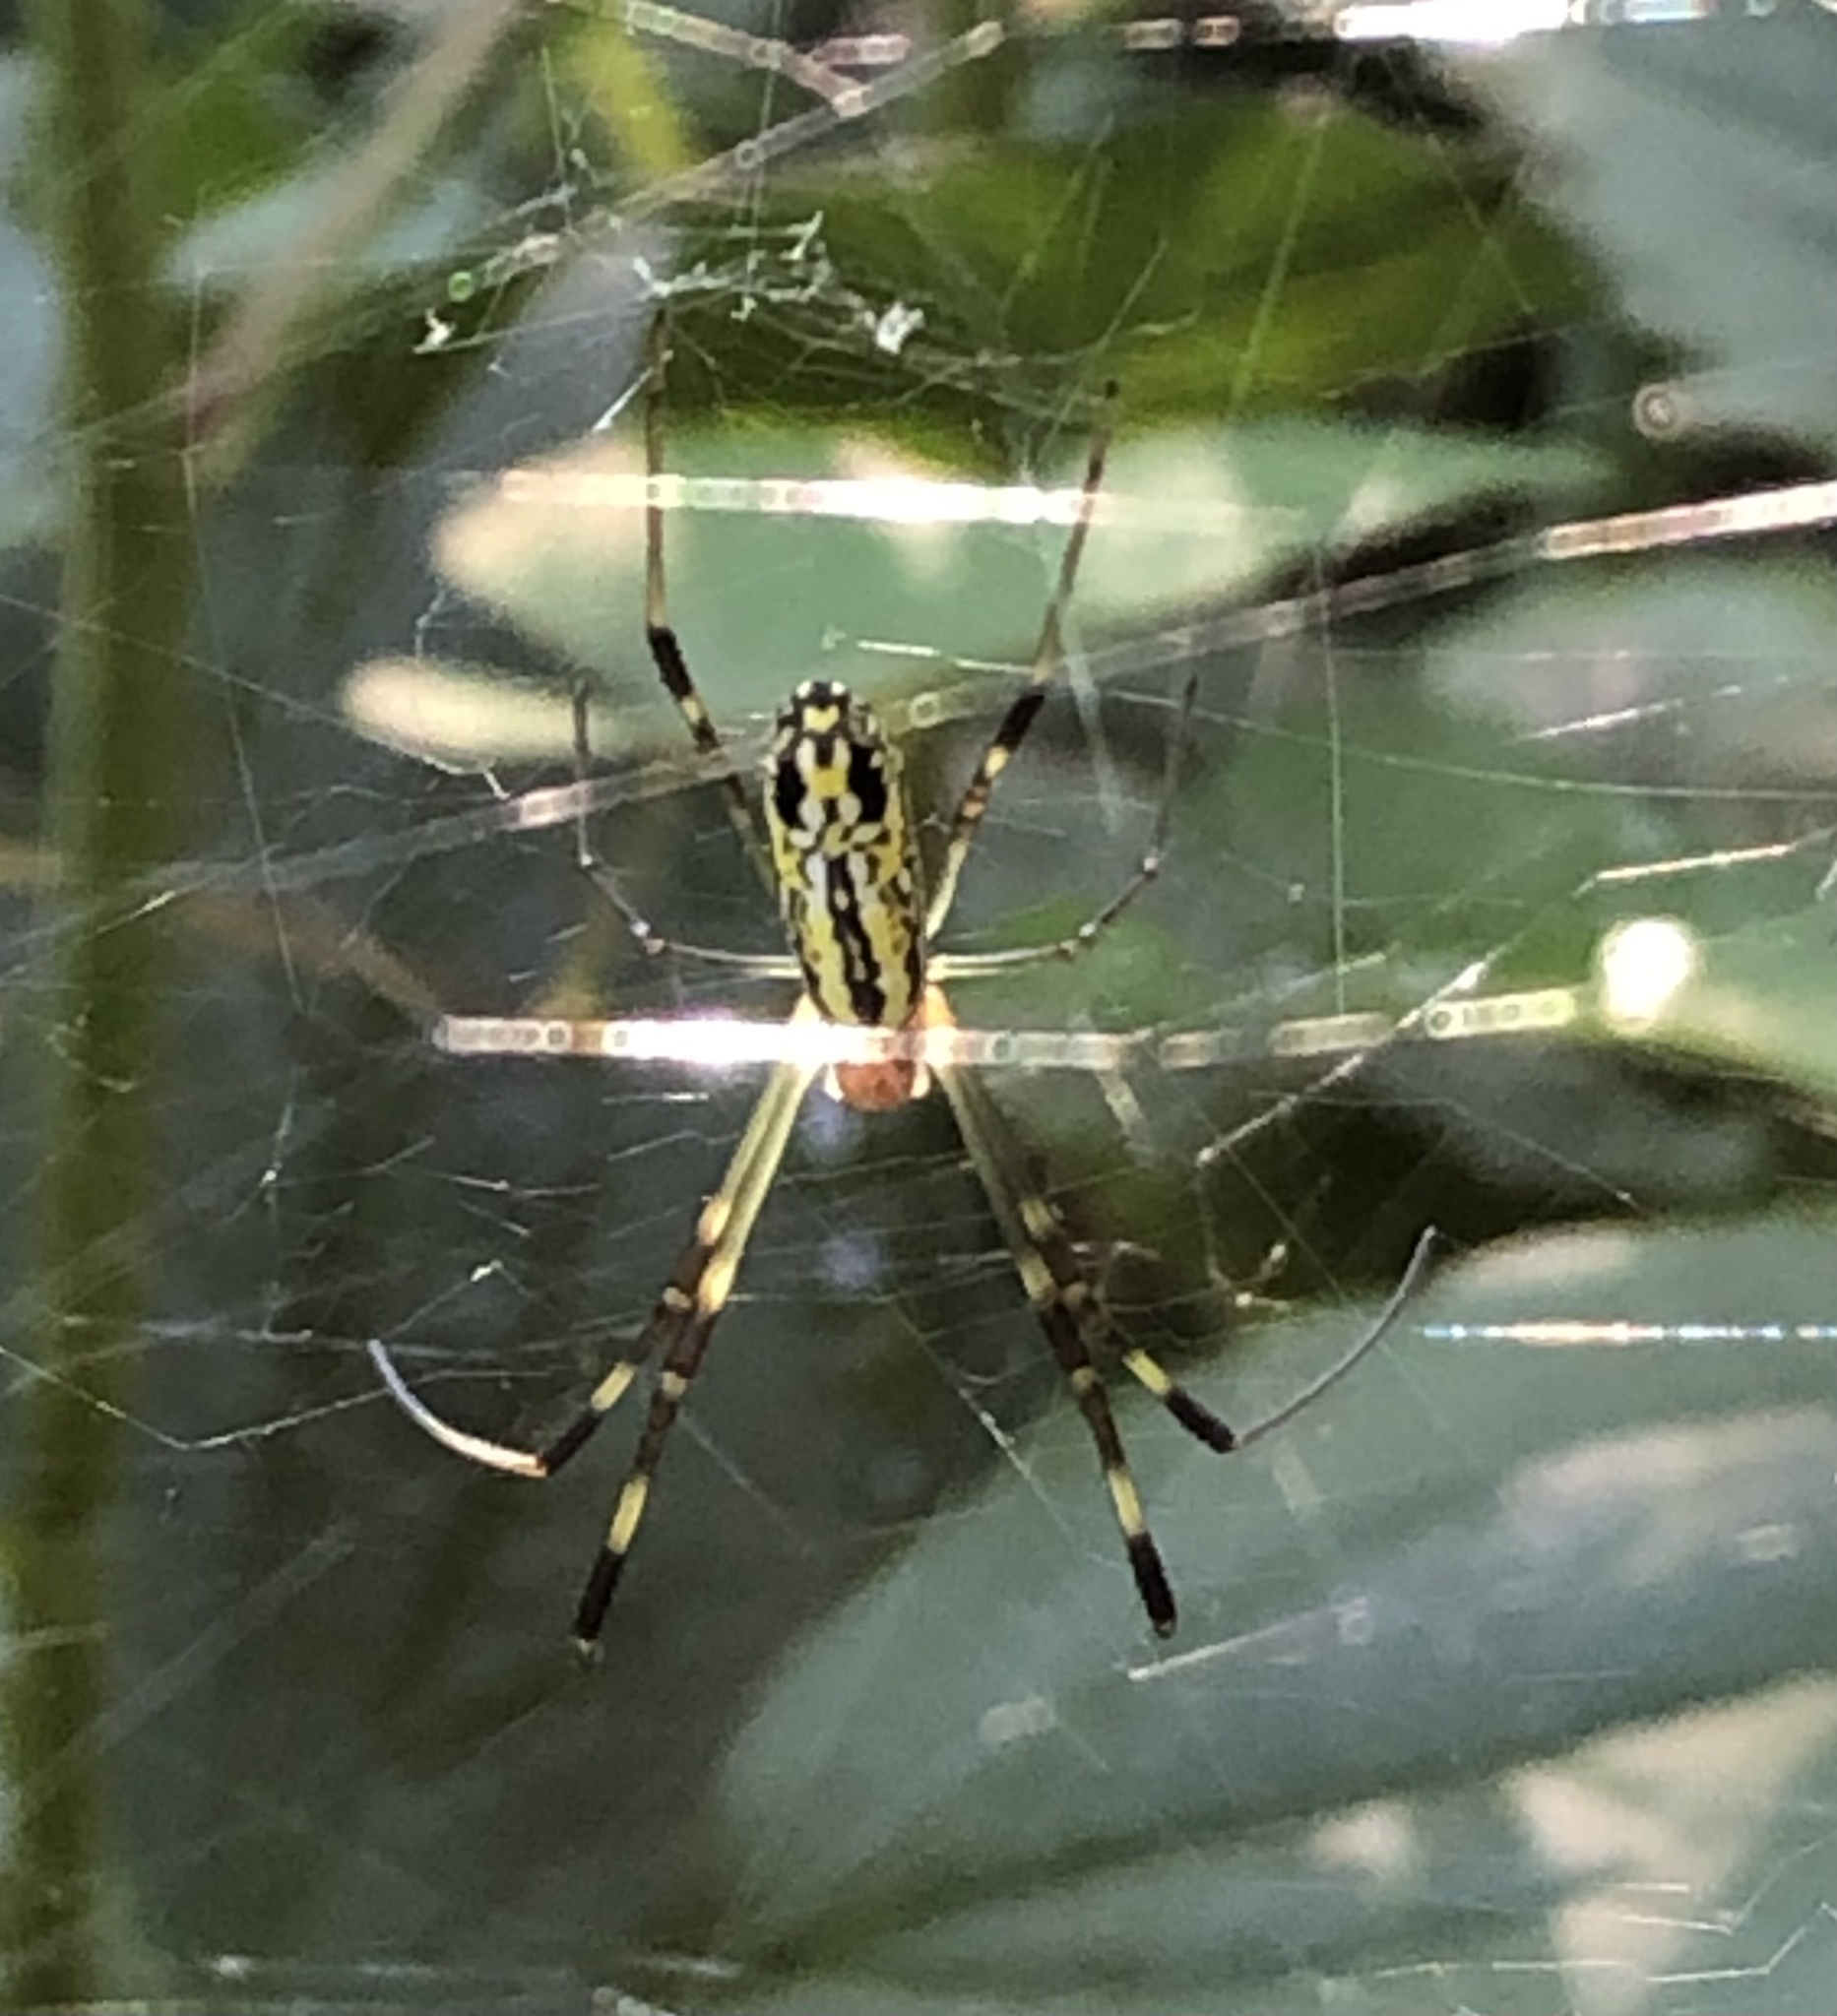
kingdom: Animalia
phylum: Arthropoda
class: Arachnida
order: Araneae
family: Araneidae
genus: Trichonephila
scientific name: Trichonephila clavata
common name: Jorō spider
